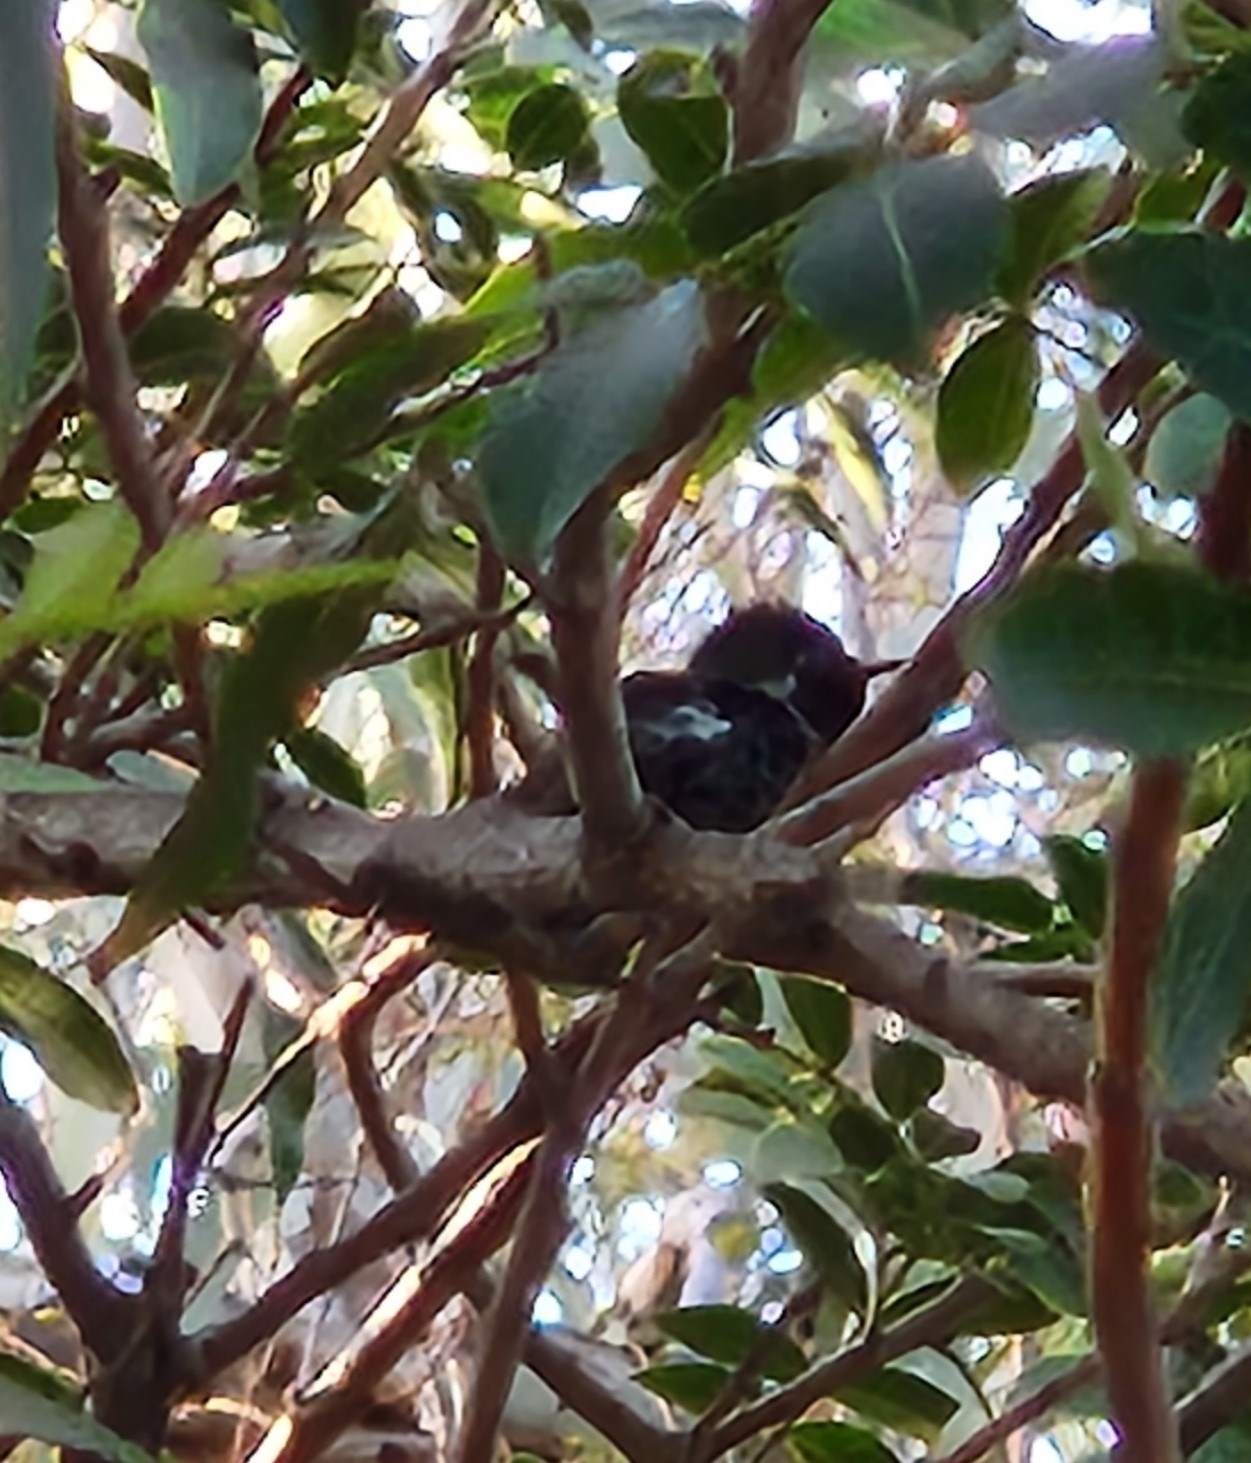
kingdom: Animalia
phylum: Chordata
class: Aves
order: Apodiformes
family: Trochilidae
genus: Calypte
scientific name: Calypte anna
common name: Anna's hummingbird
